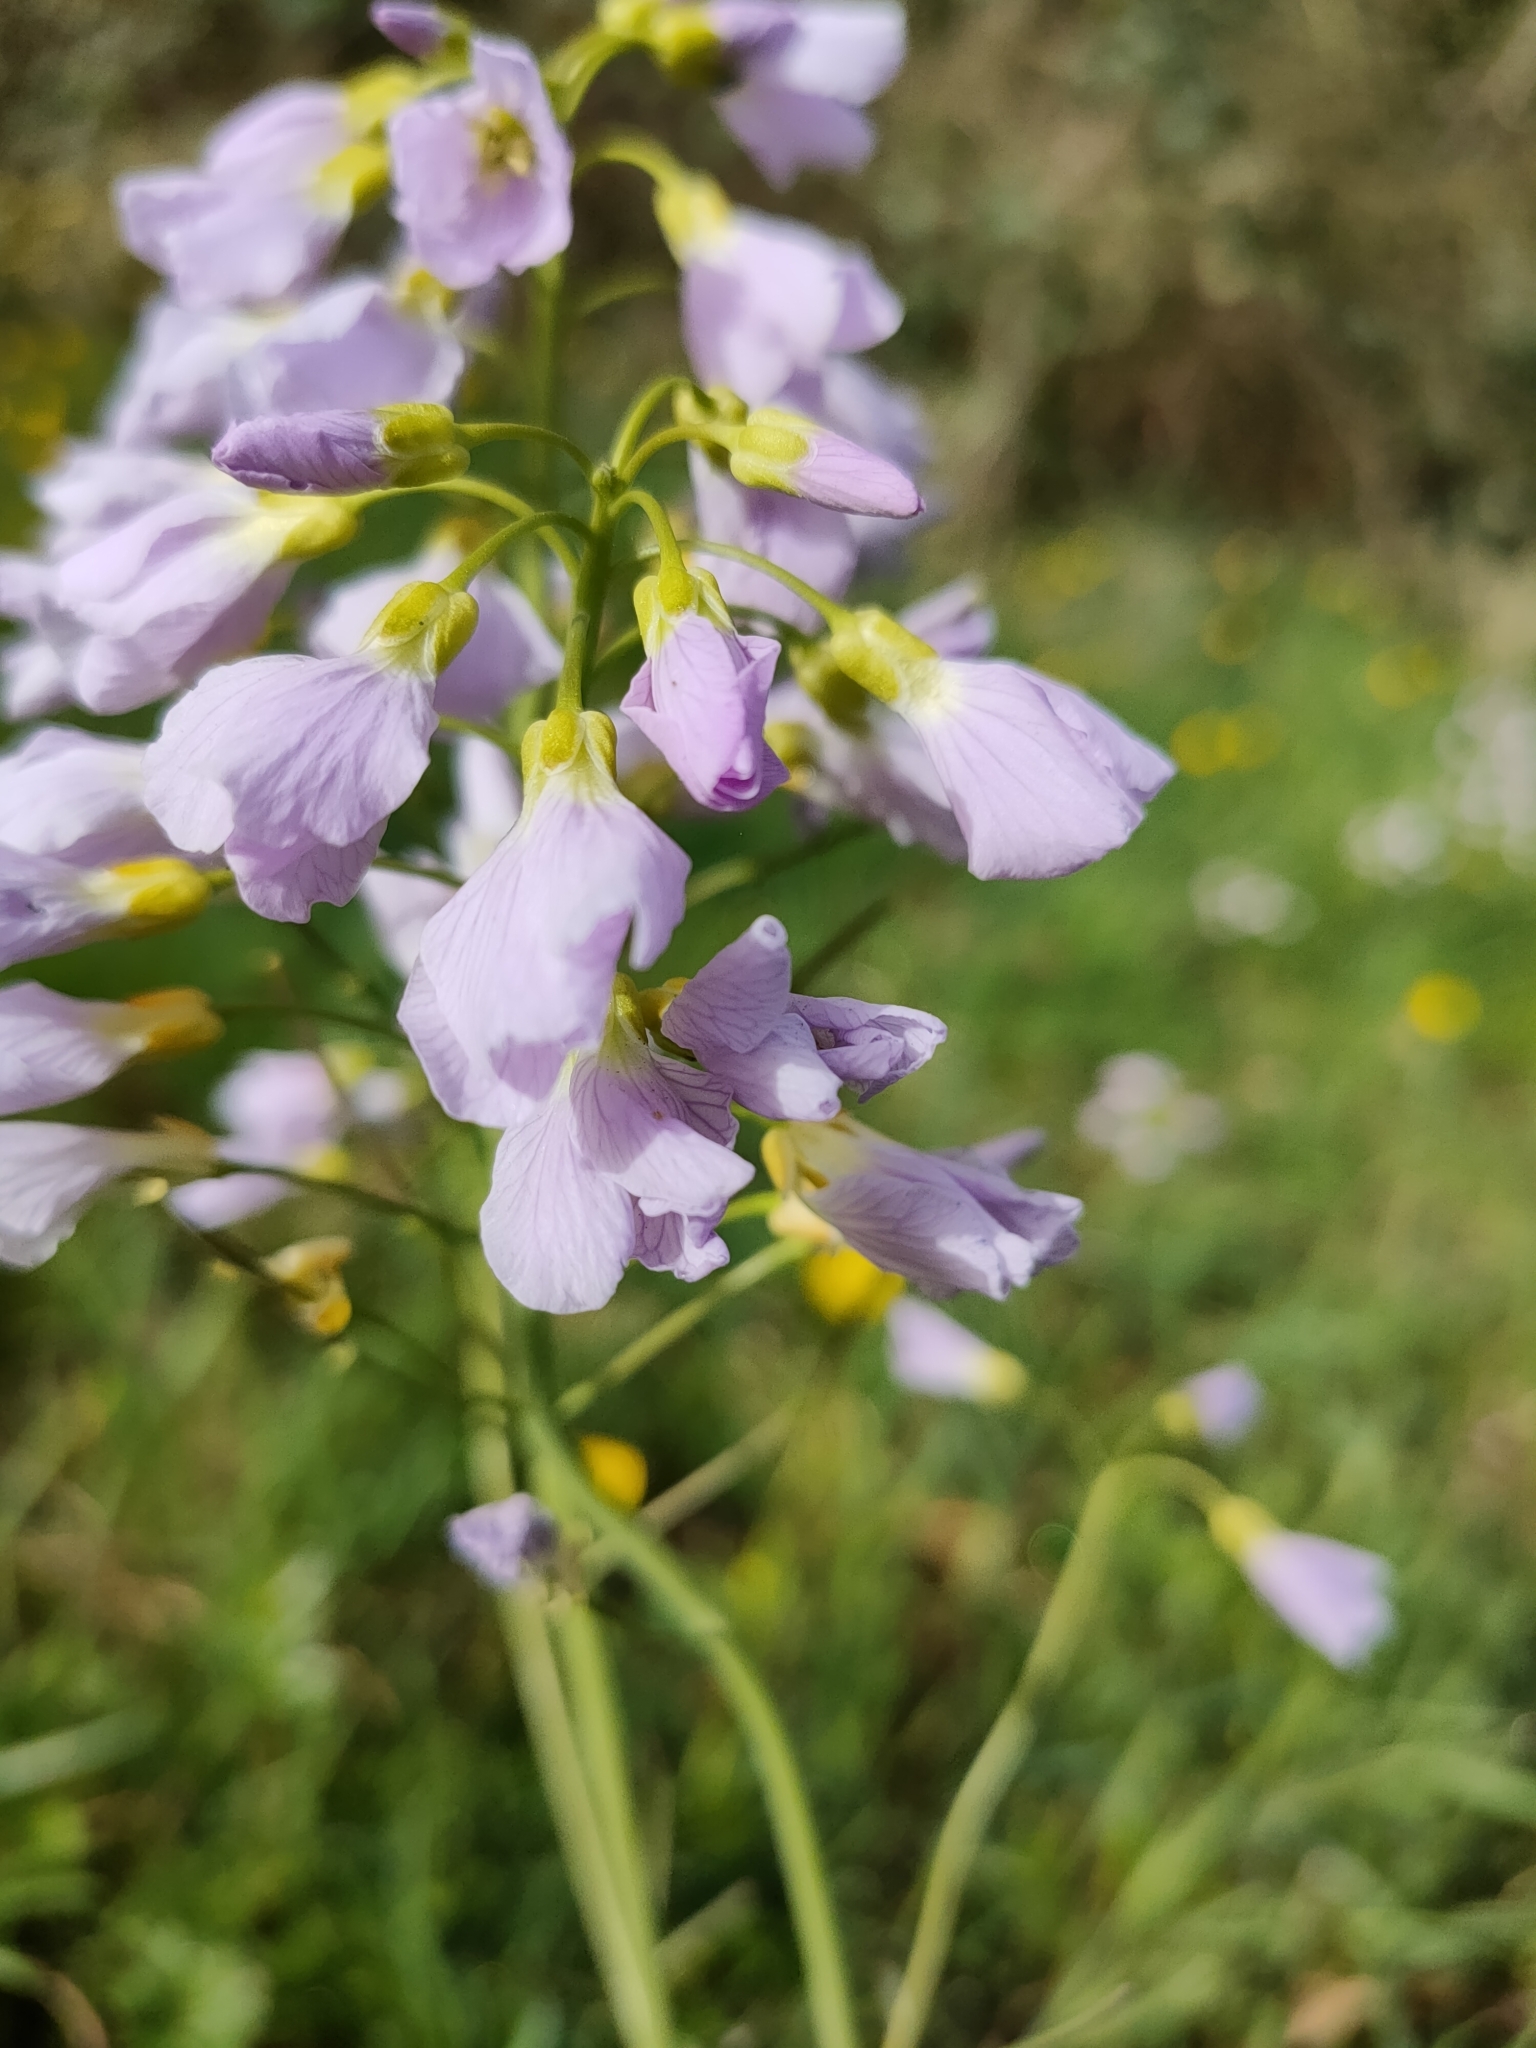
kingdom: Plantae
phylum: Tracheophyta
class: Magnoliopsida
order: Brassicales
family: Brassicaceae
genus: Cardamine
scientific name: Cardamine pratensis
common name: Cuckoo flower
